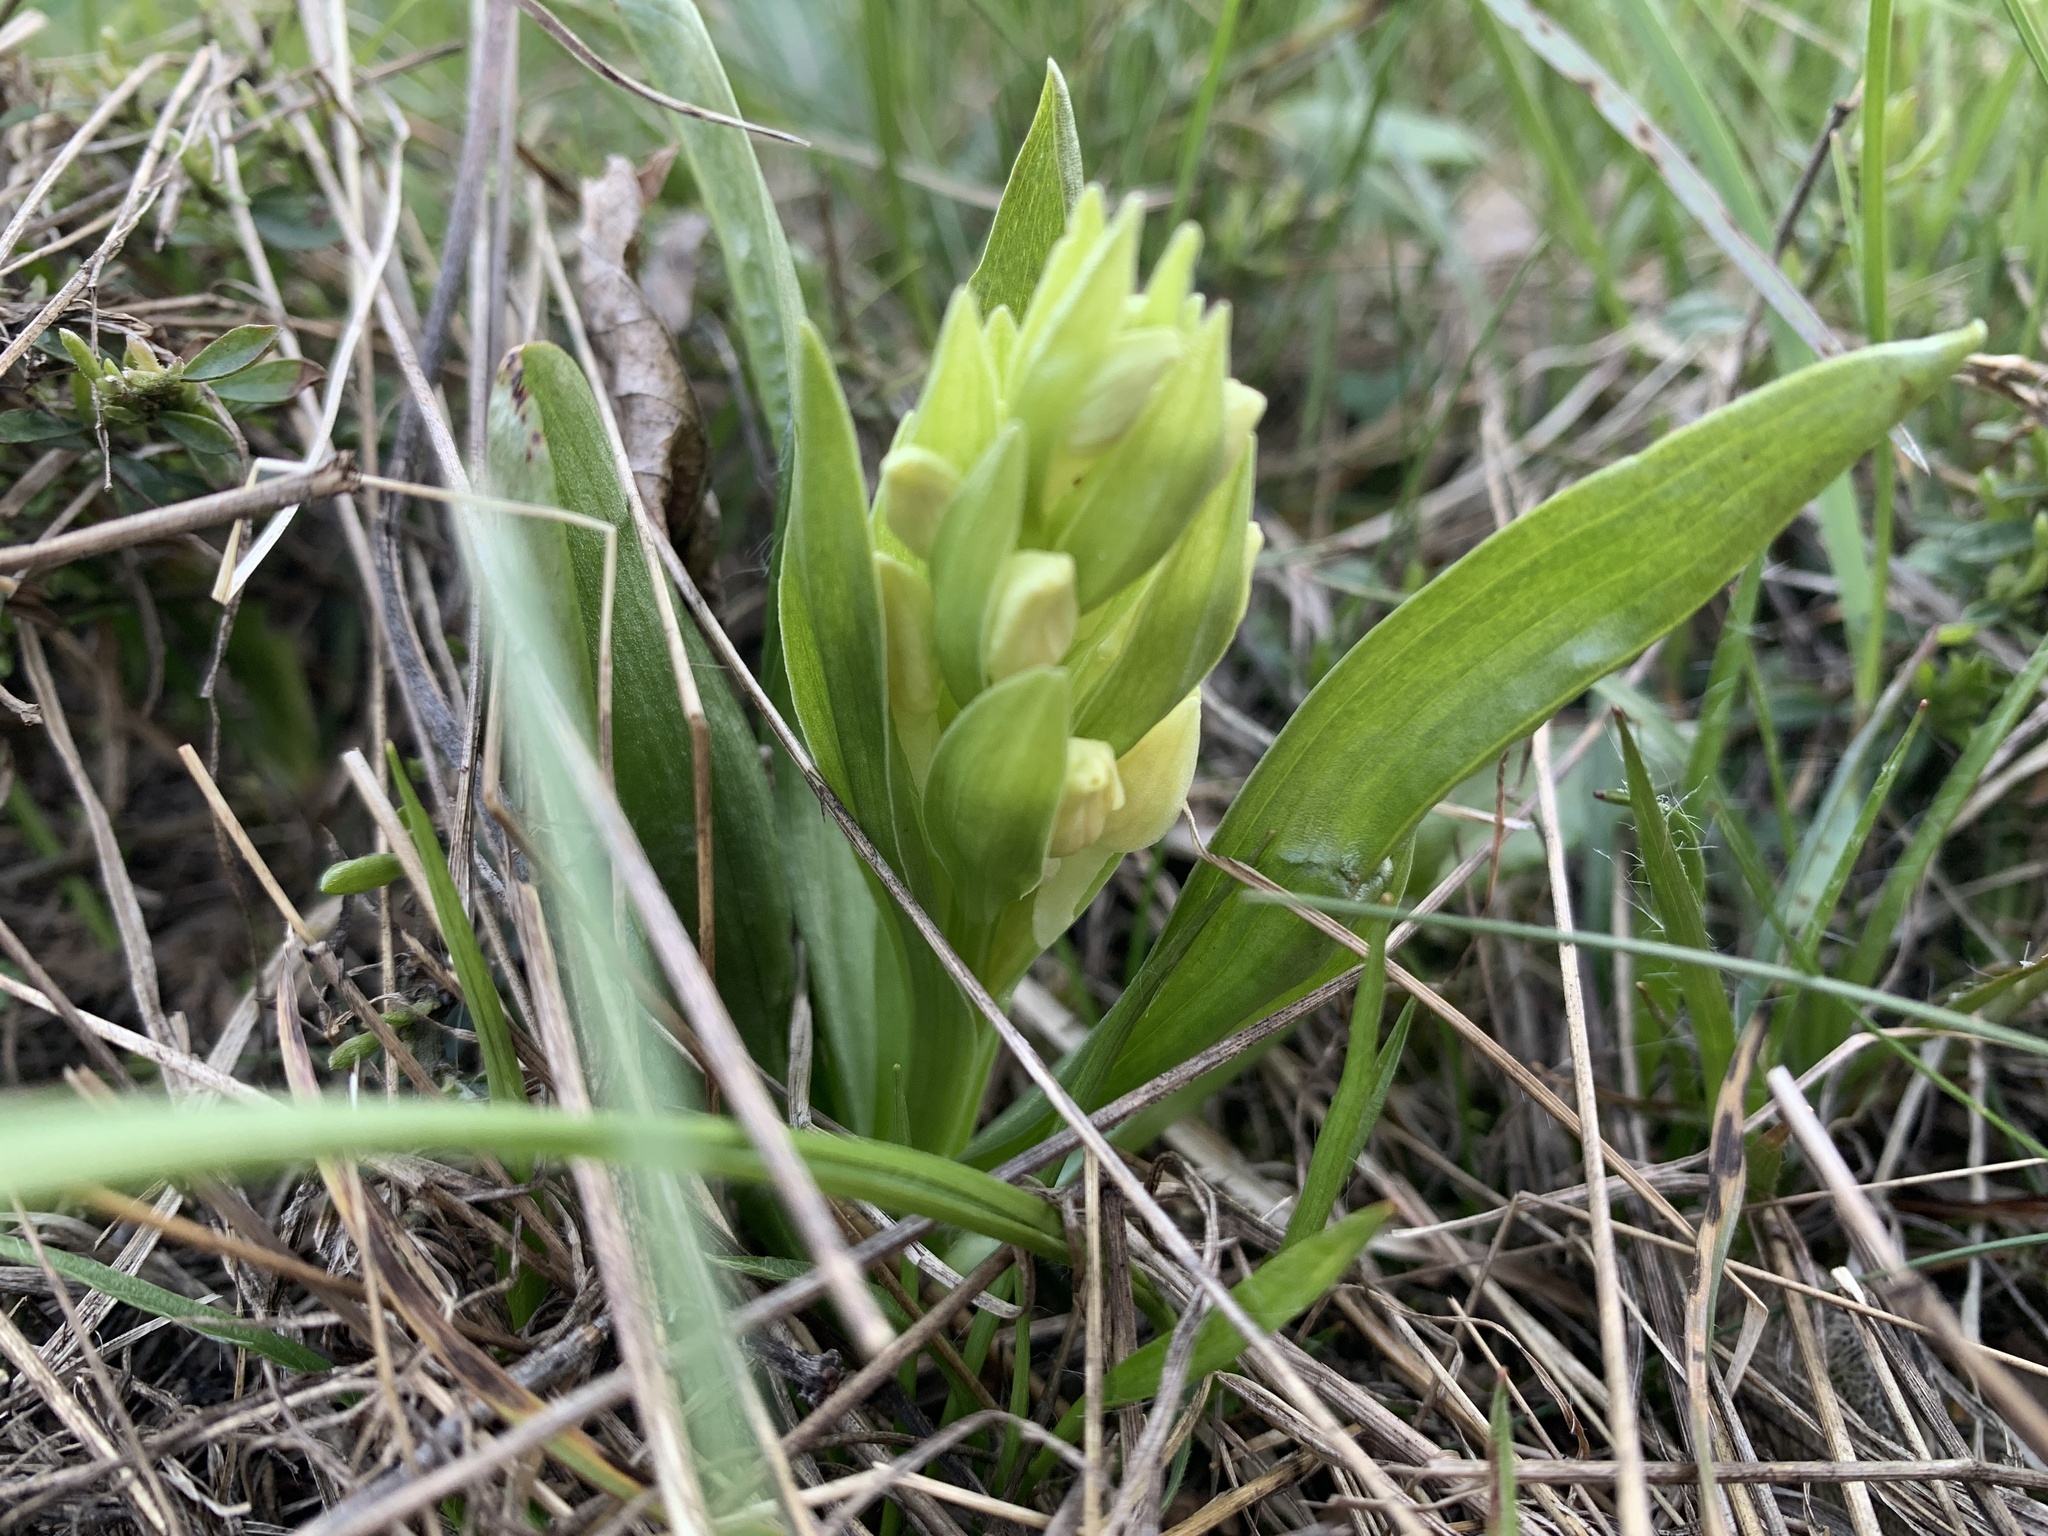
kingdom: Plantae
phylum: Tracheophyta
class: Liliopsida
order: Asparagales
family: Orchidaceae
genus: Dactylorhiza
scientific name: Dactylorhiza sambucina
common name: Elder-flowered orchid
